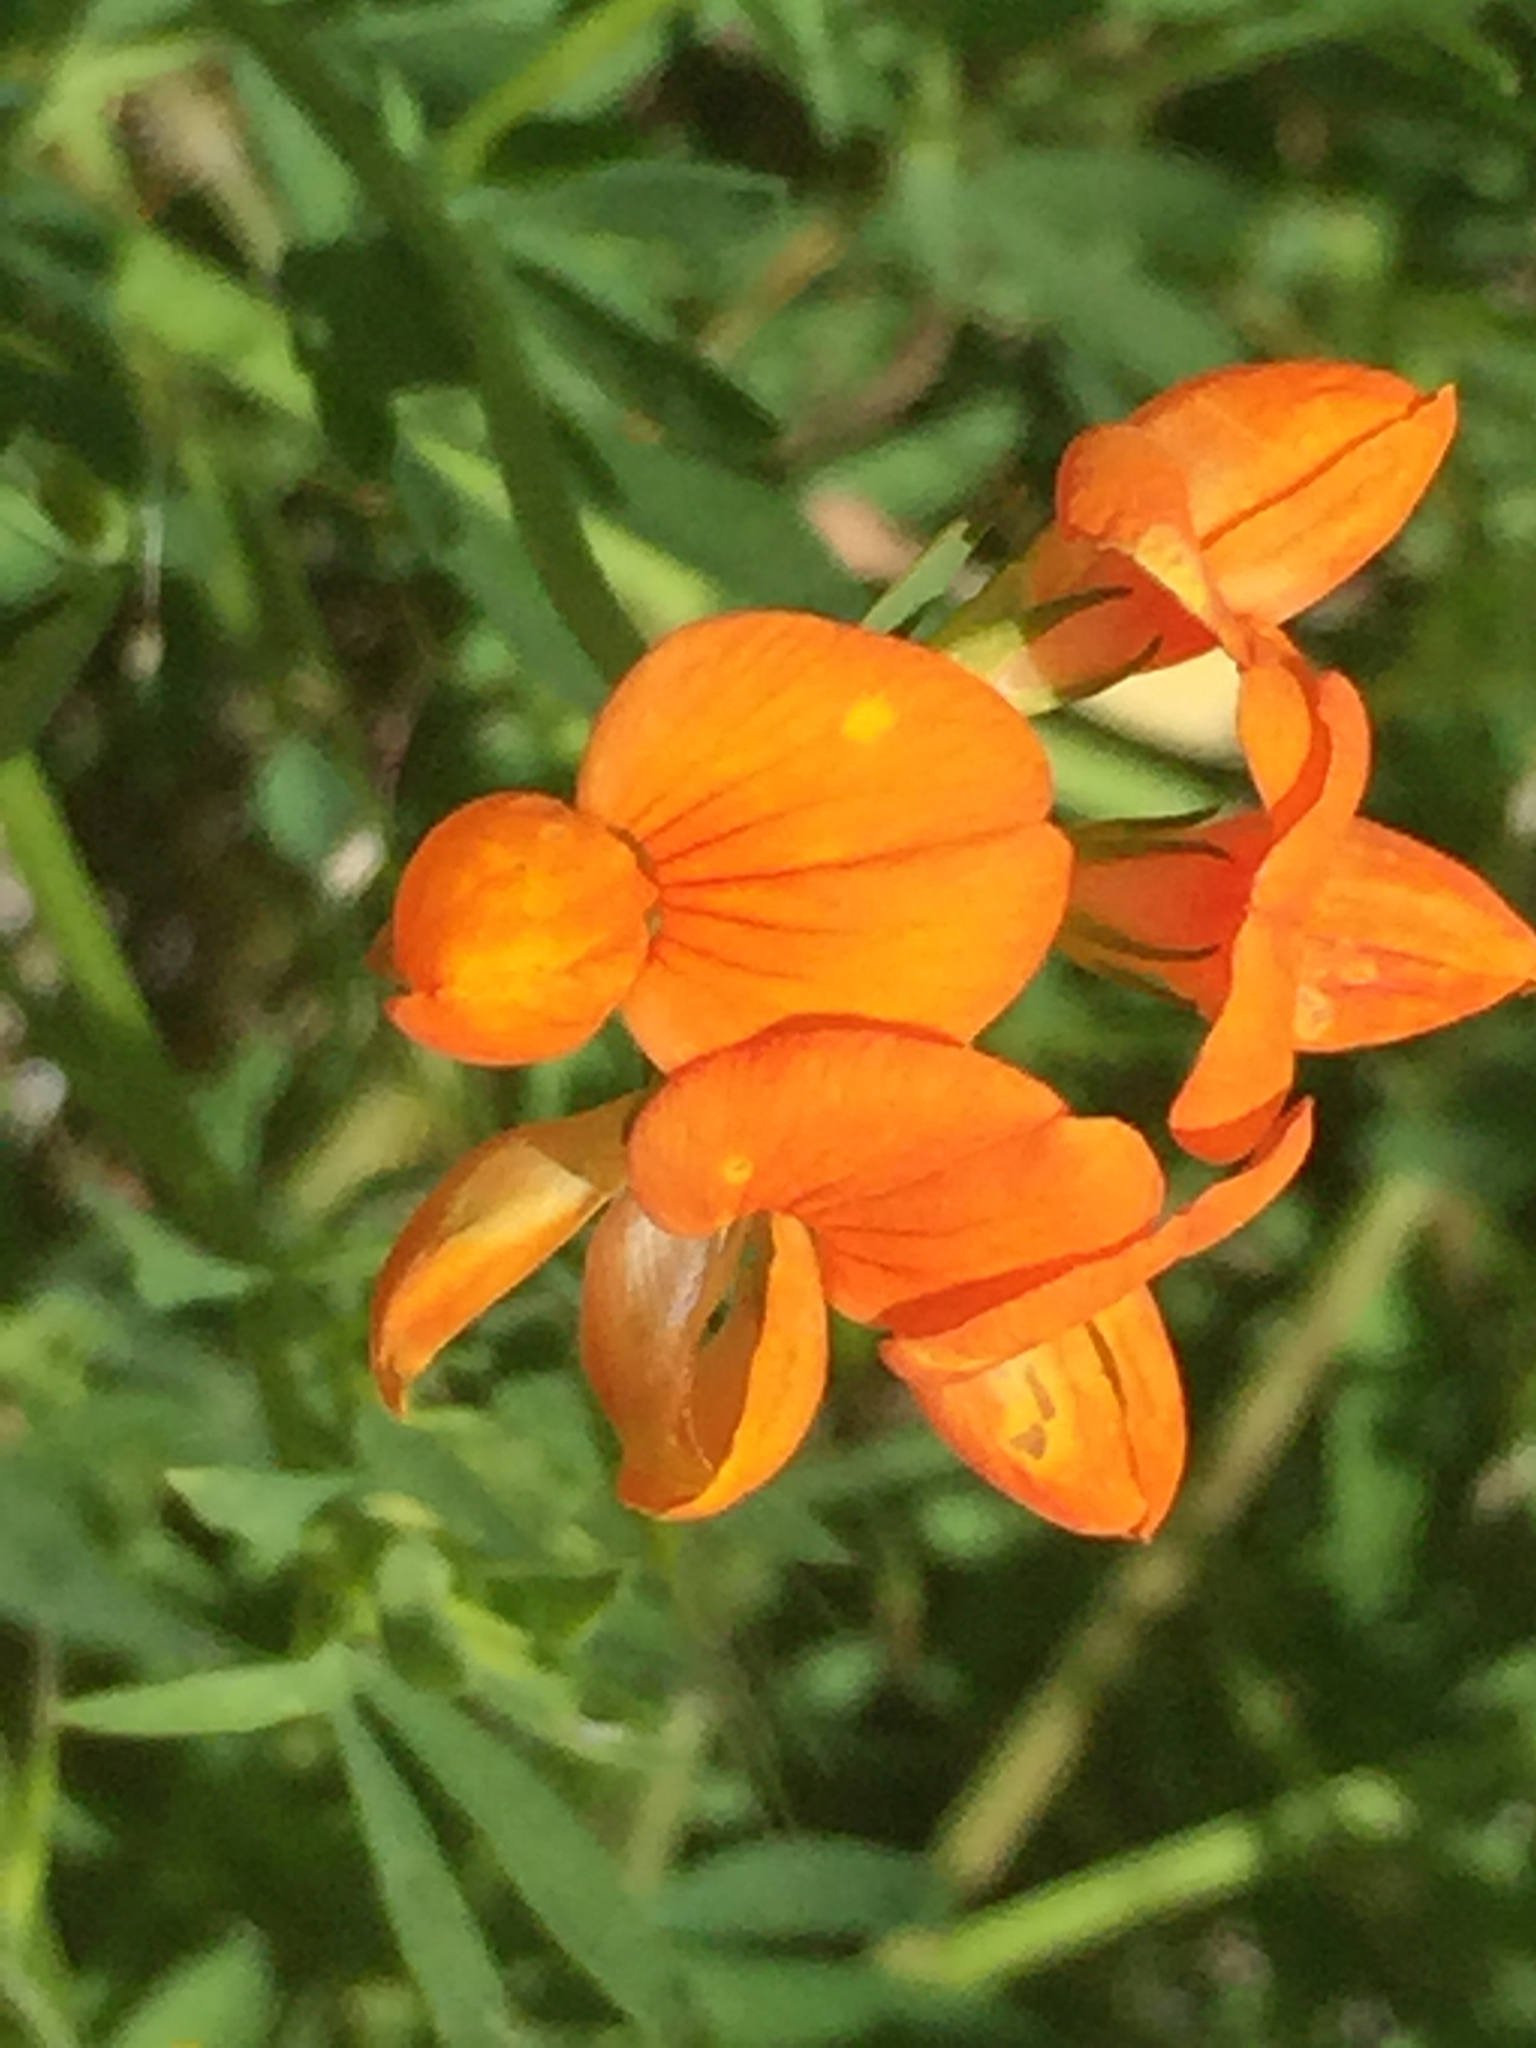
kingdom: Plantae
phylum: Tracheophyta
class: Magnoliopsida
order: Fabales
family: Fabaceae
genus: Lotus
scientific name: Lotus corniculatus
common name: Common bird's-foot-trefoil
